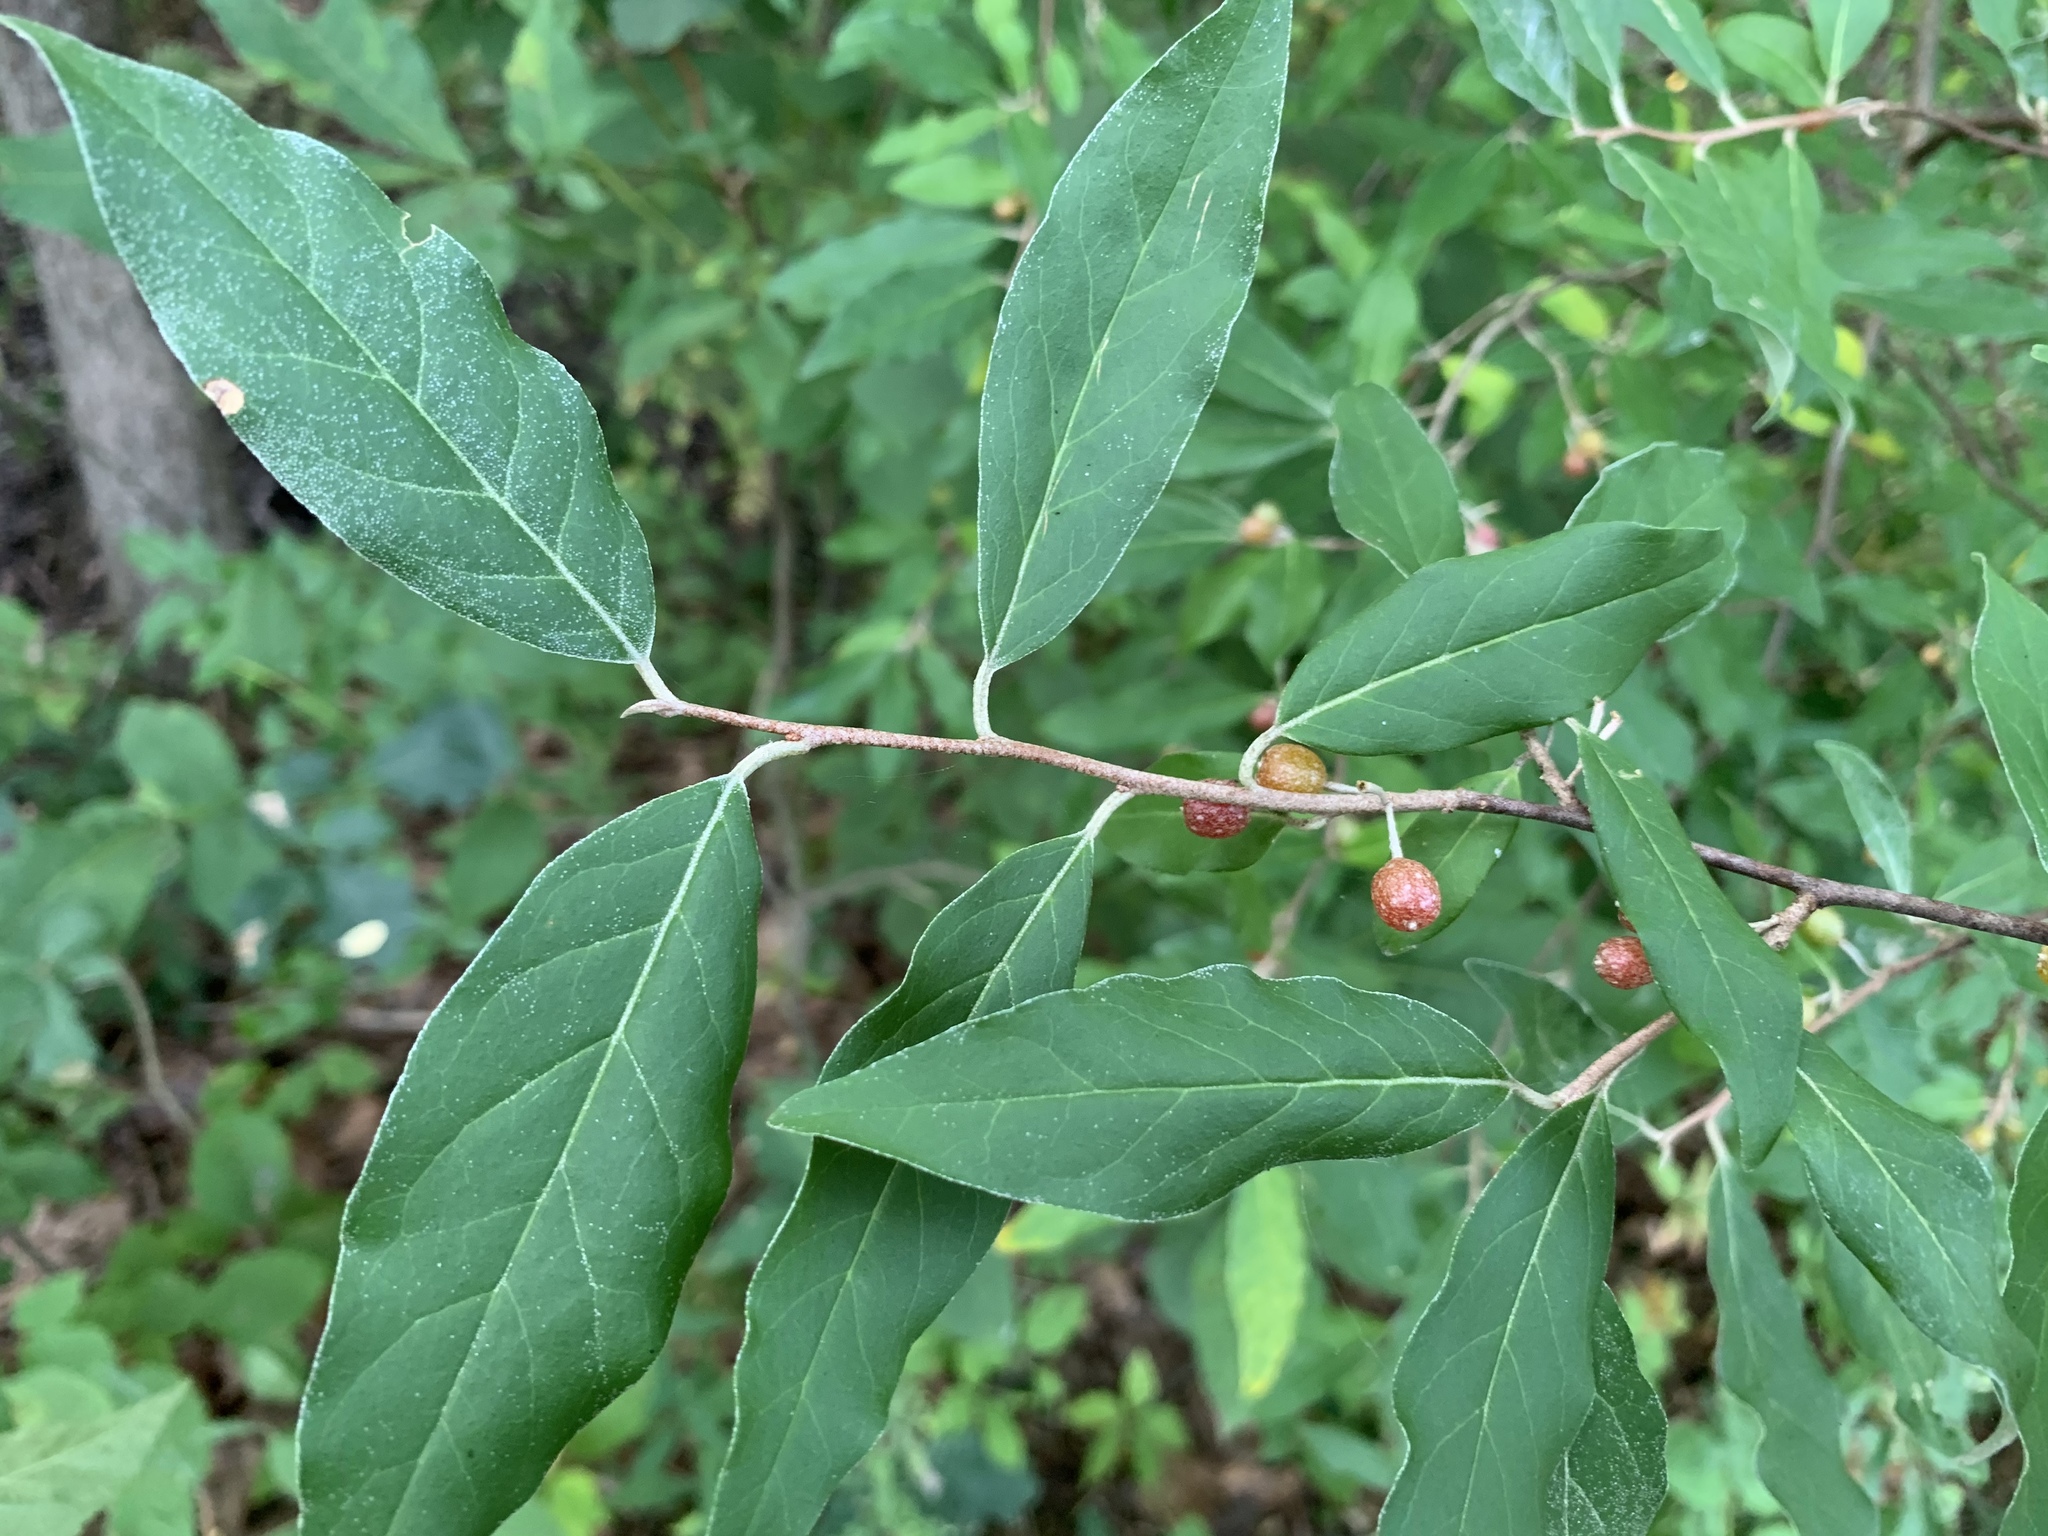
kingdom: Plantae
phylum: Tracheophyta
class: Magnoliopsida
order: Rosales
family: Elaeagnaceae
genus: Elaeagnus
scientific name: Elaeagnus umbellata
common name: Autumn olive
